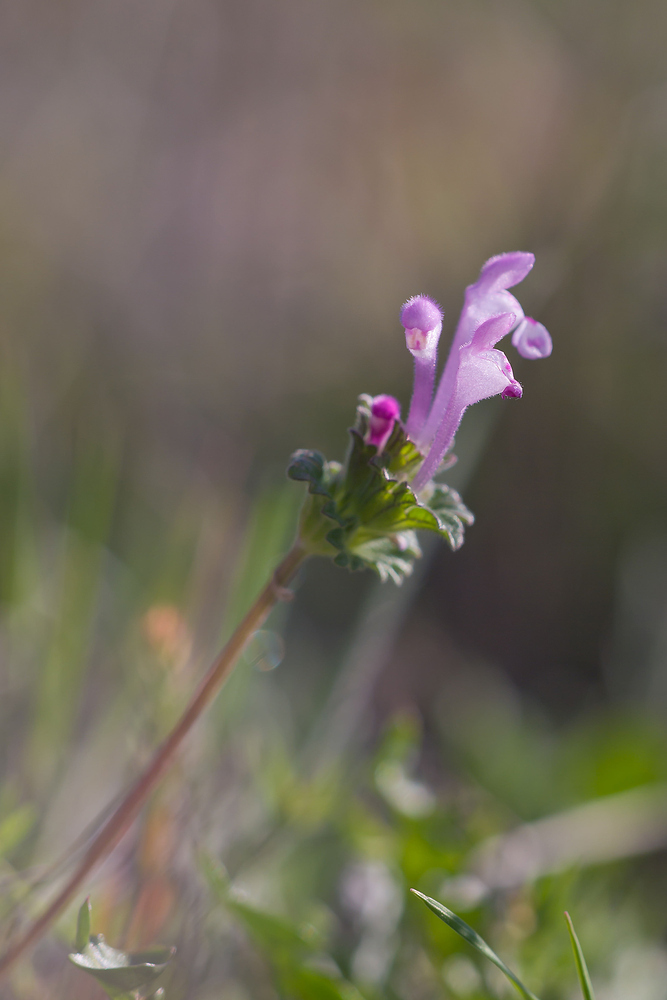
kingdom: Plantae
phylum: Tracheophyta
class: Magnoliopsida
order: Lamiales
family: Lamiaceae
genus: Lamium
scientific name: Lamium amplexicaule
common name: Henbit dead-nettle
